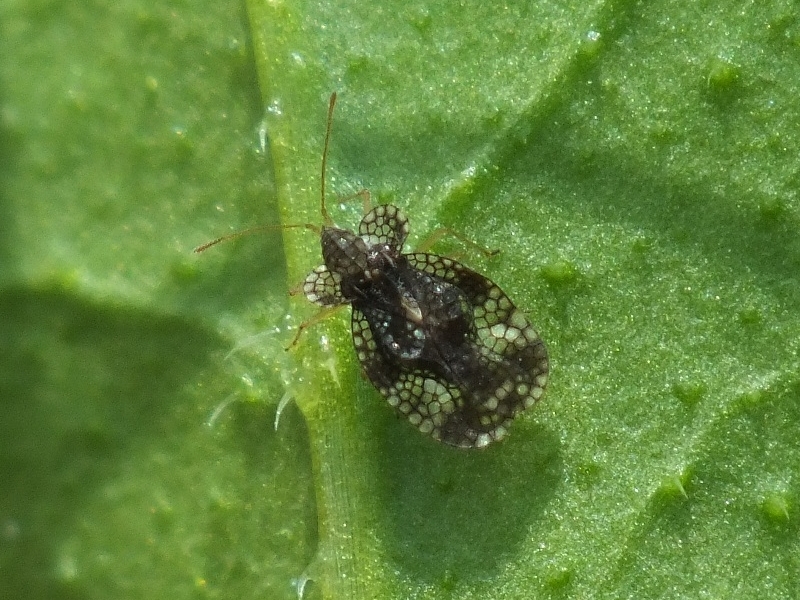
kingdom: Animalia
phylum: Arthropoda
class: Insecta
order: Hemiptera
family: Tingidae
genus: Stephanitis
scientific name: Stephanitis pyri
